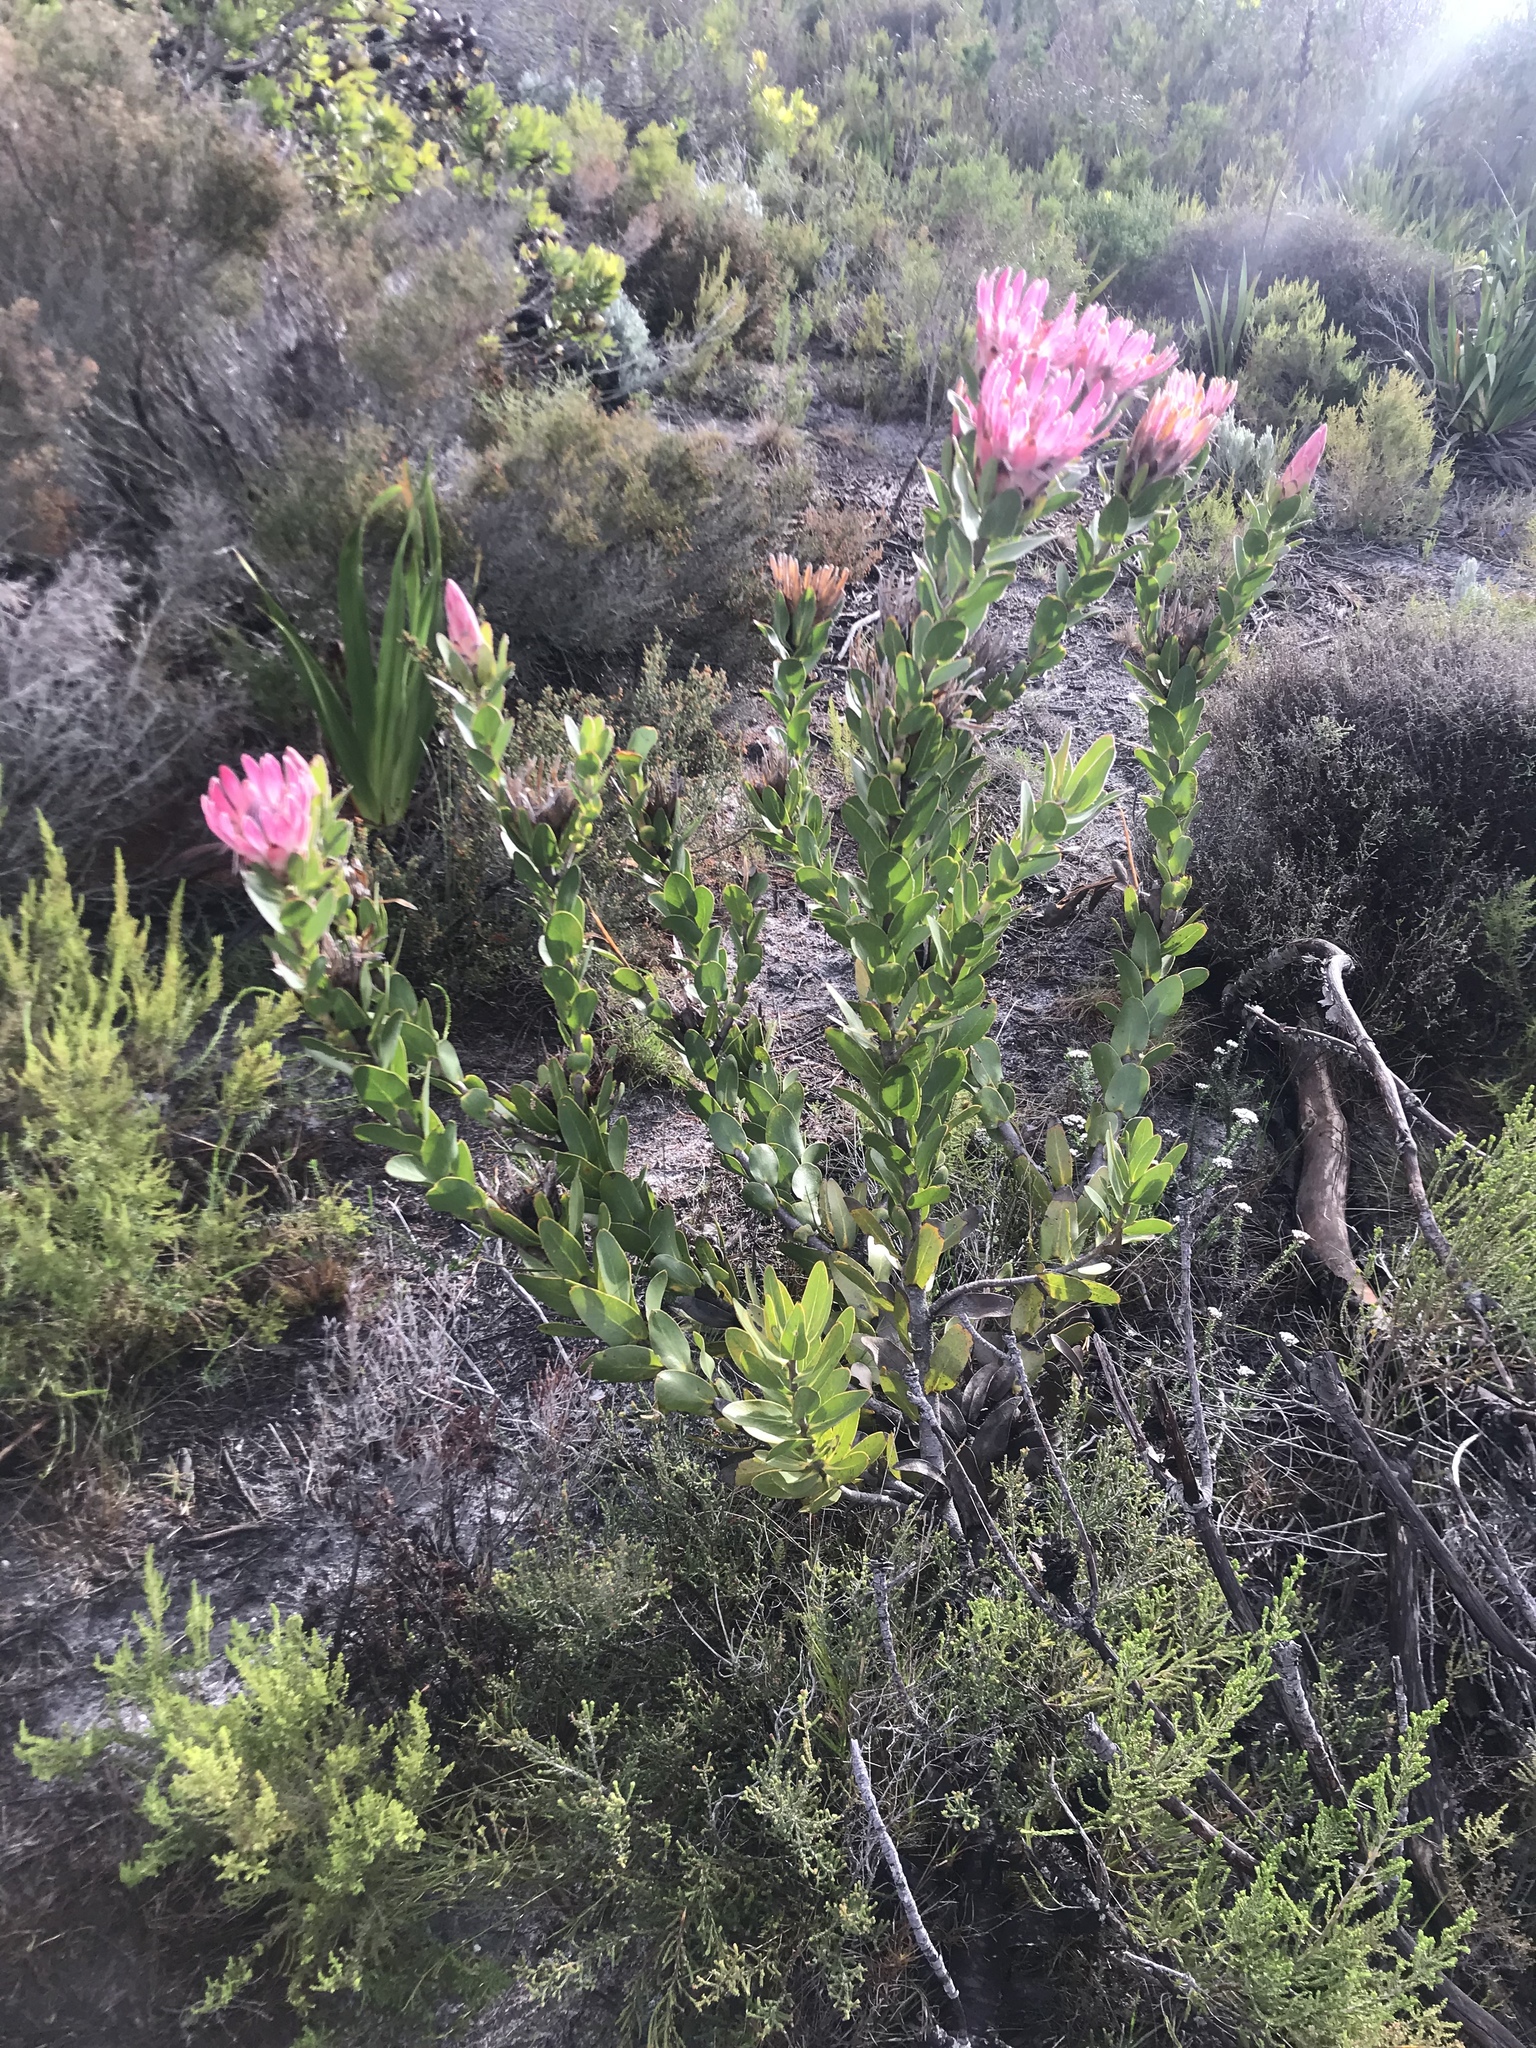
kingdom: Plantae
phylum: Tracheophyta
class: Magnoliopsida
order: Proteales
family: Proteaceae
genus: Protea
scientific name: Protea compacta
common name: Bot river protea
